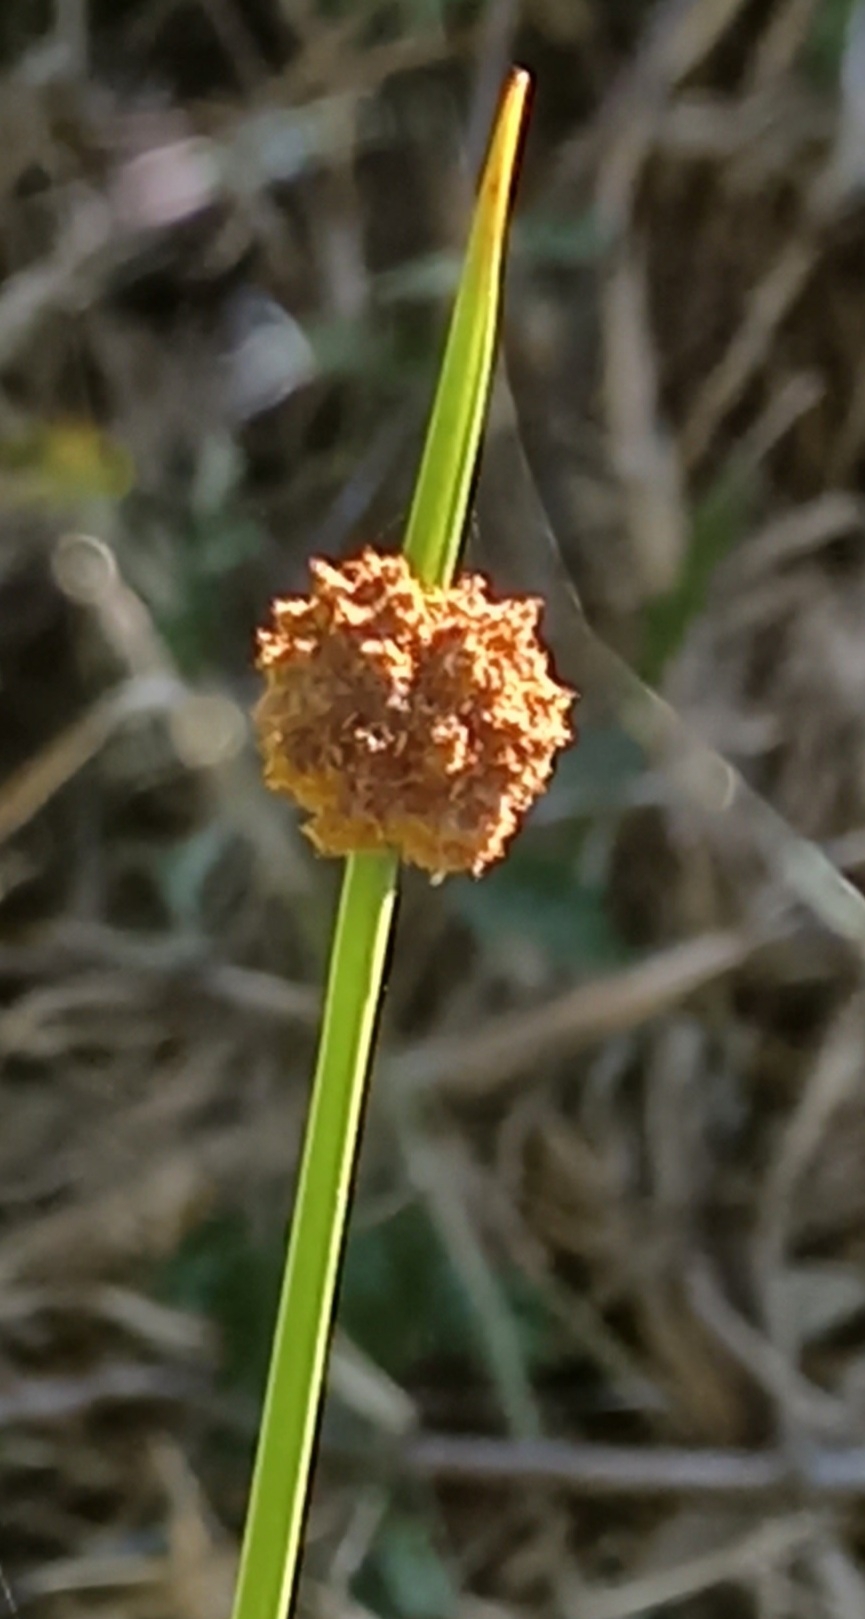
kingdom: Plantae
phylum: Tracheophyta
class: Liliopsida
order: Poales
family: Cyperaceae
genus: Ficinia
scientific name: Ficinia nodosa
